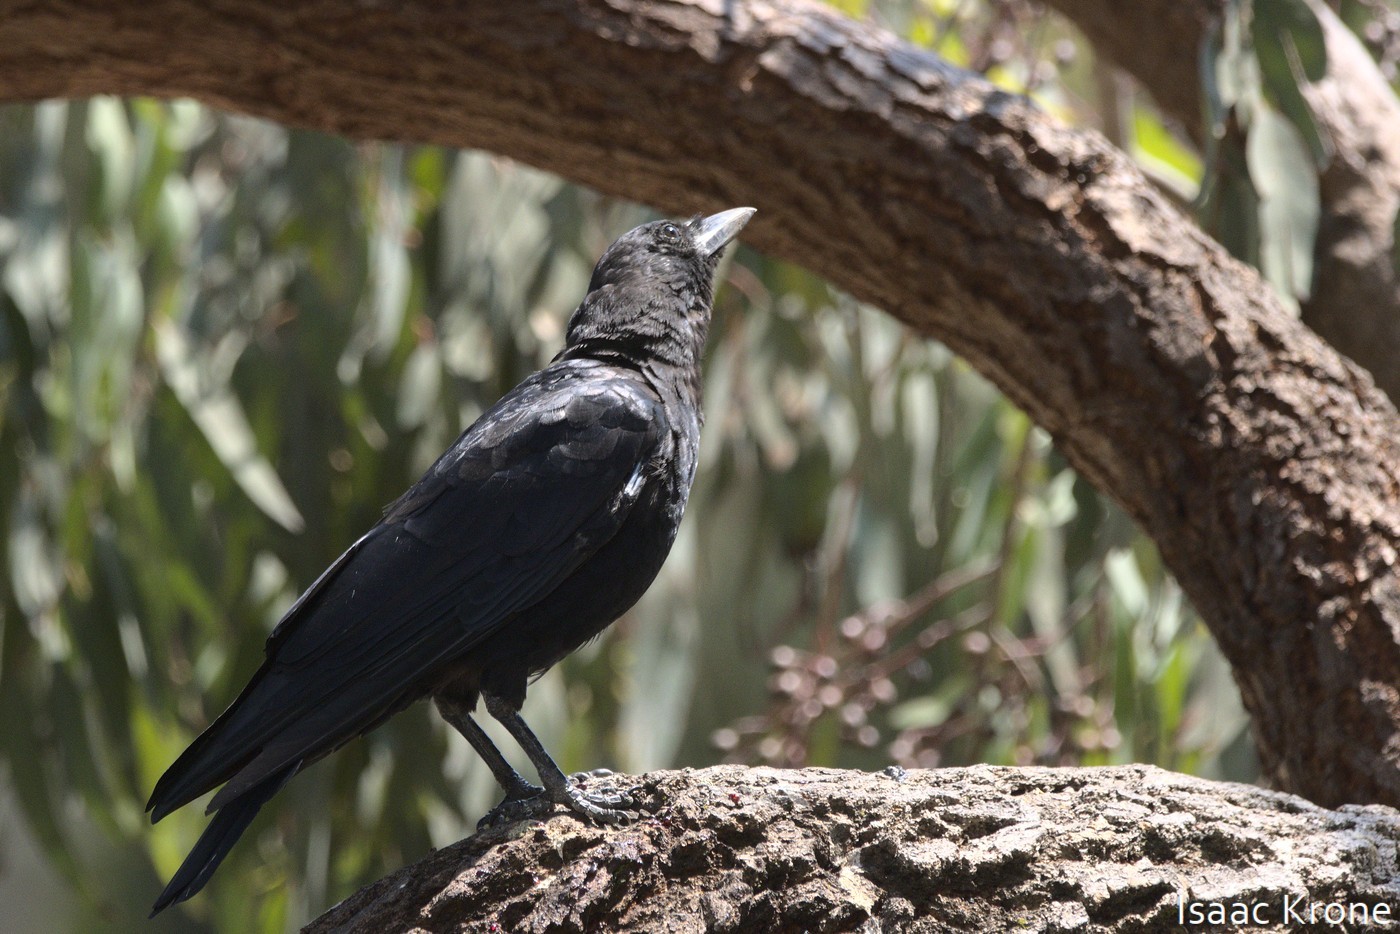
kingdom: Animalia
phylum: Chordata
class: Aves
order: Passeriformes
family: Corvidae
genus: Corvus
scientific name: Corvus brachyrhynchos
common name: American crow
